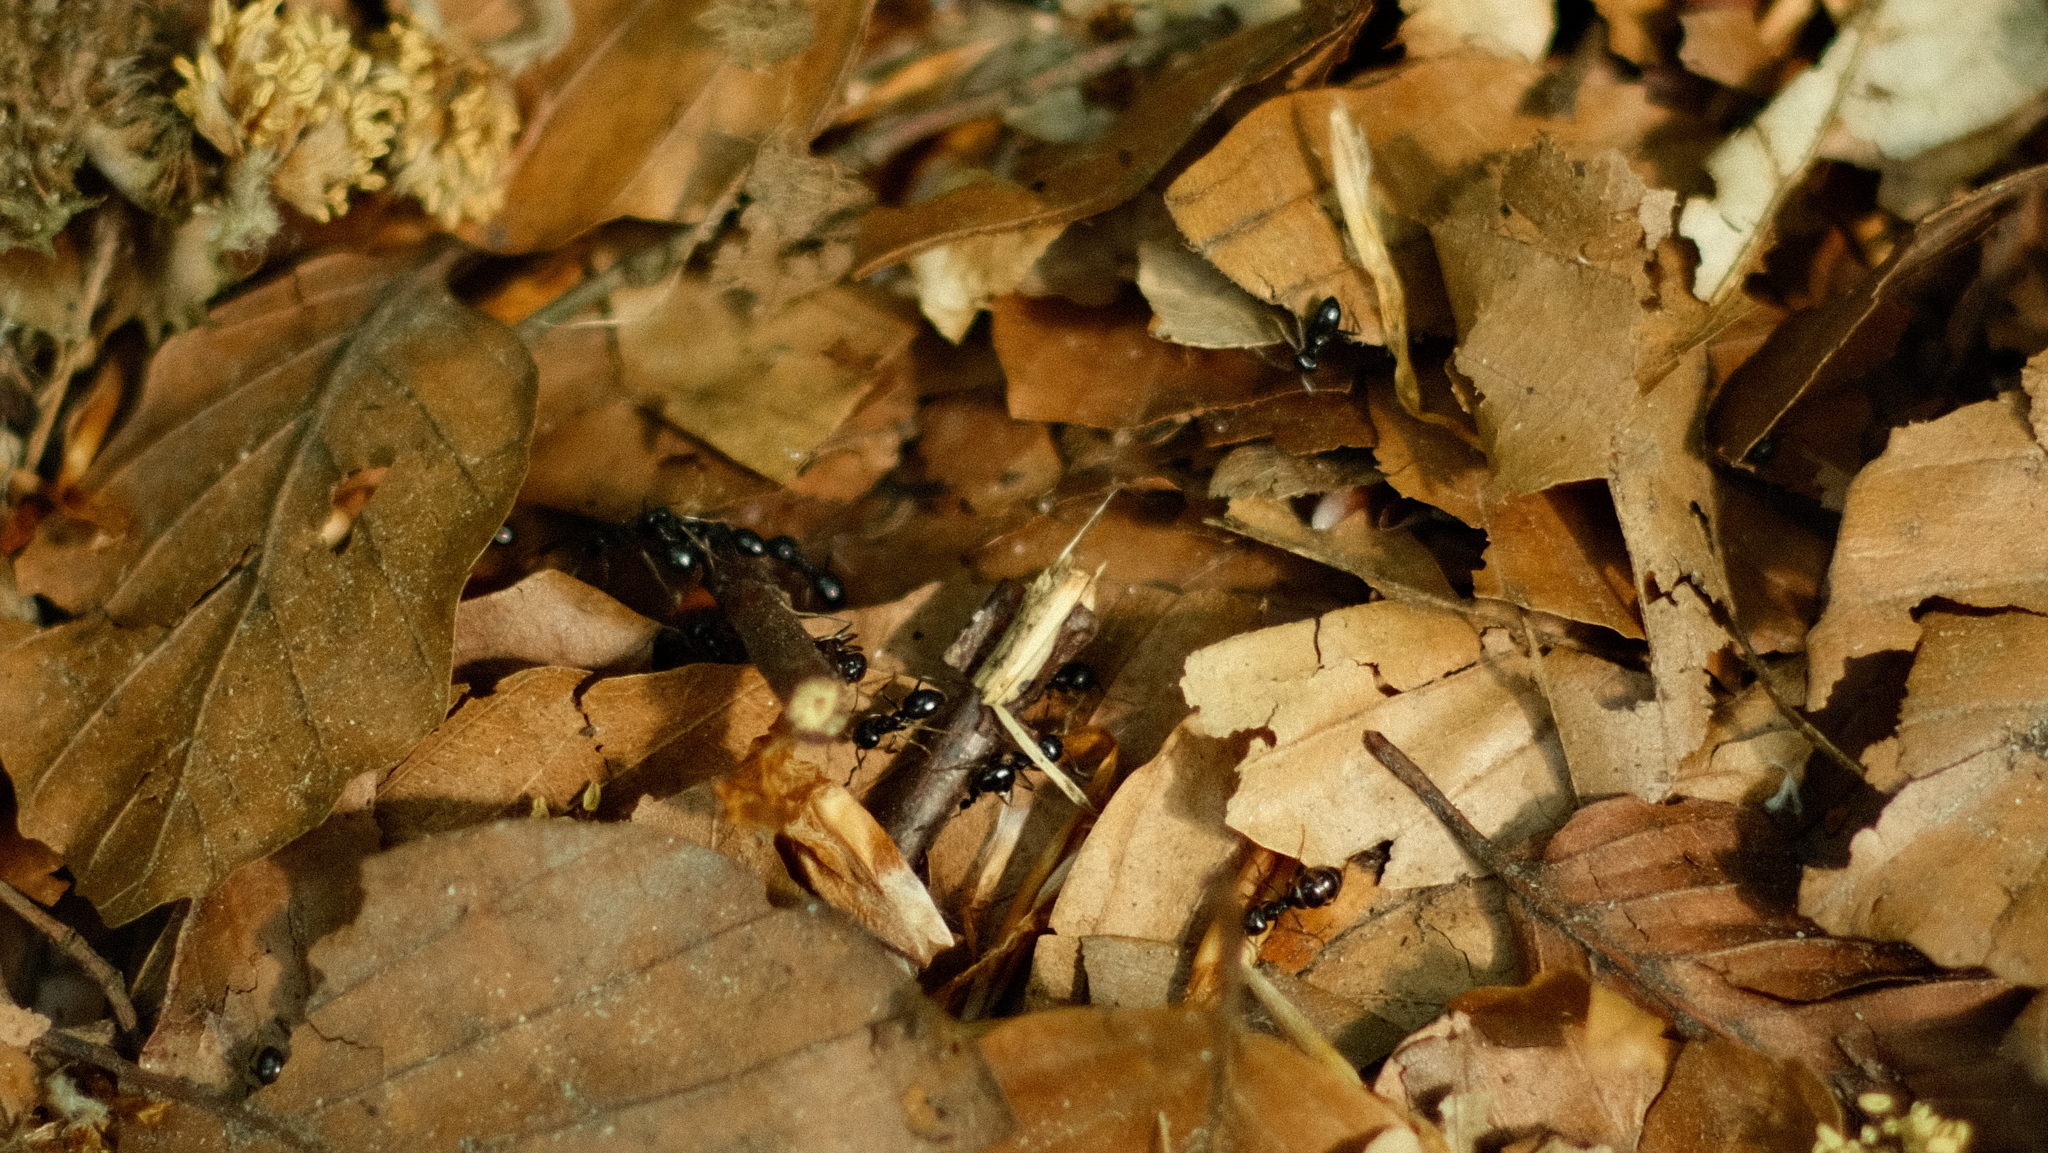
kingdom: Animalia
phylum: Arthropoda
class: Insecta
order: Hymenoptera
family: Formicidae
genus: Lasius
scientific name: Lasius fuliginosus
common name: Jet ant
